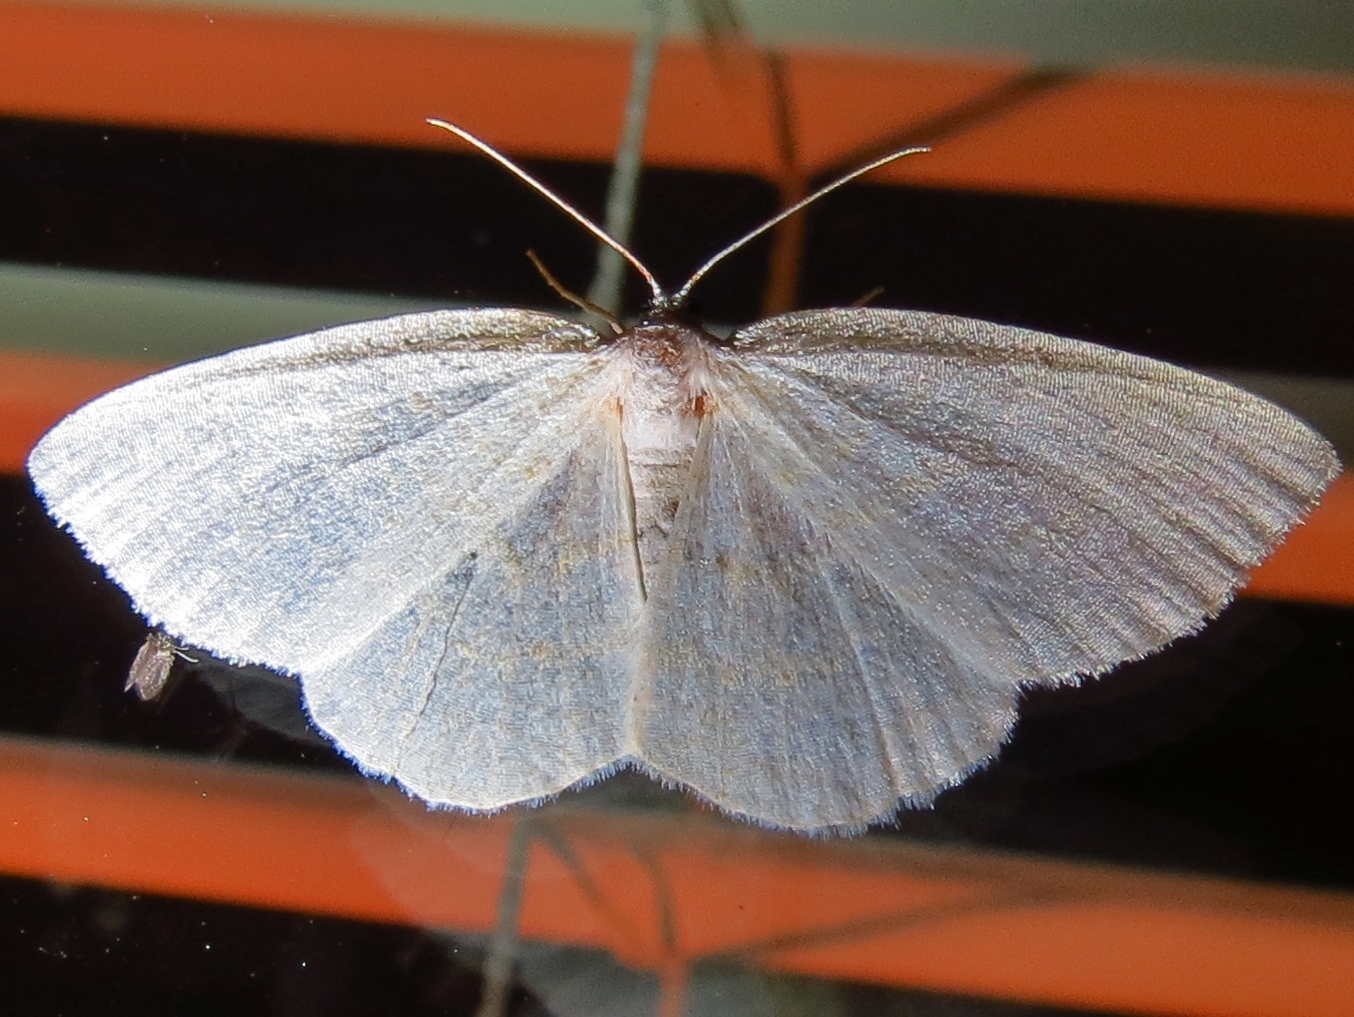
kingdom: Animalia
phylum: Arthropoda
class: Insecta
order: Lepidoptera
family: Geometridae
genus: Cabera
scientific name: Cabera exanthemata
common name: Common wave
